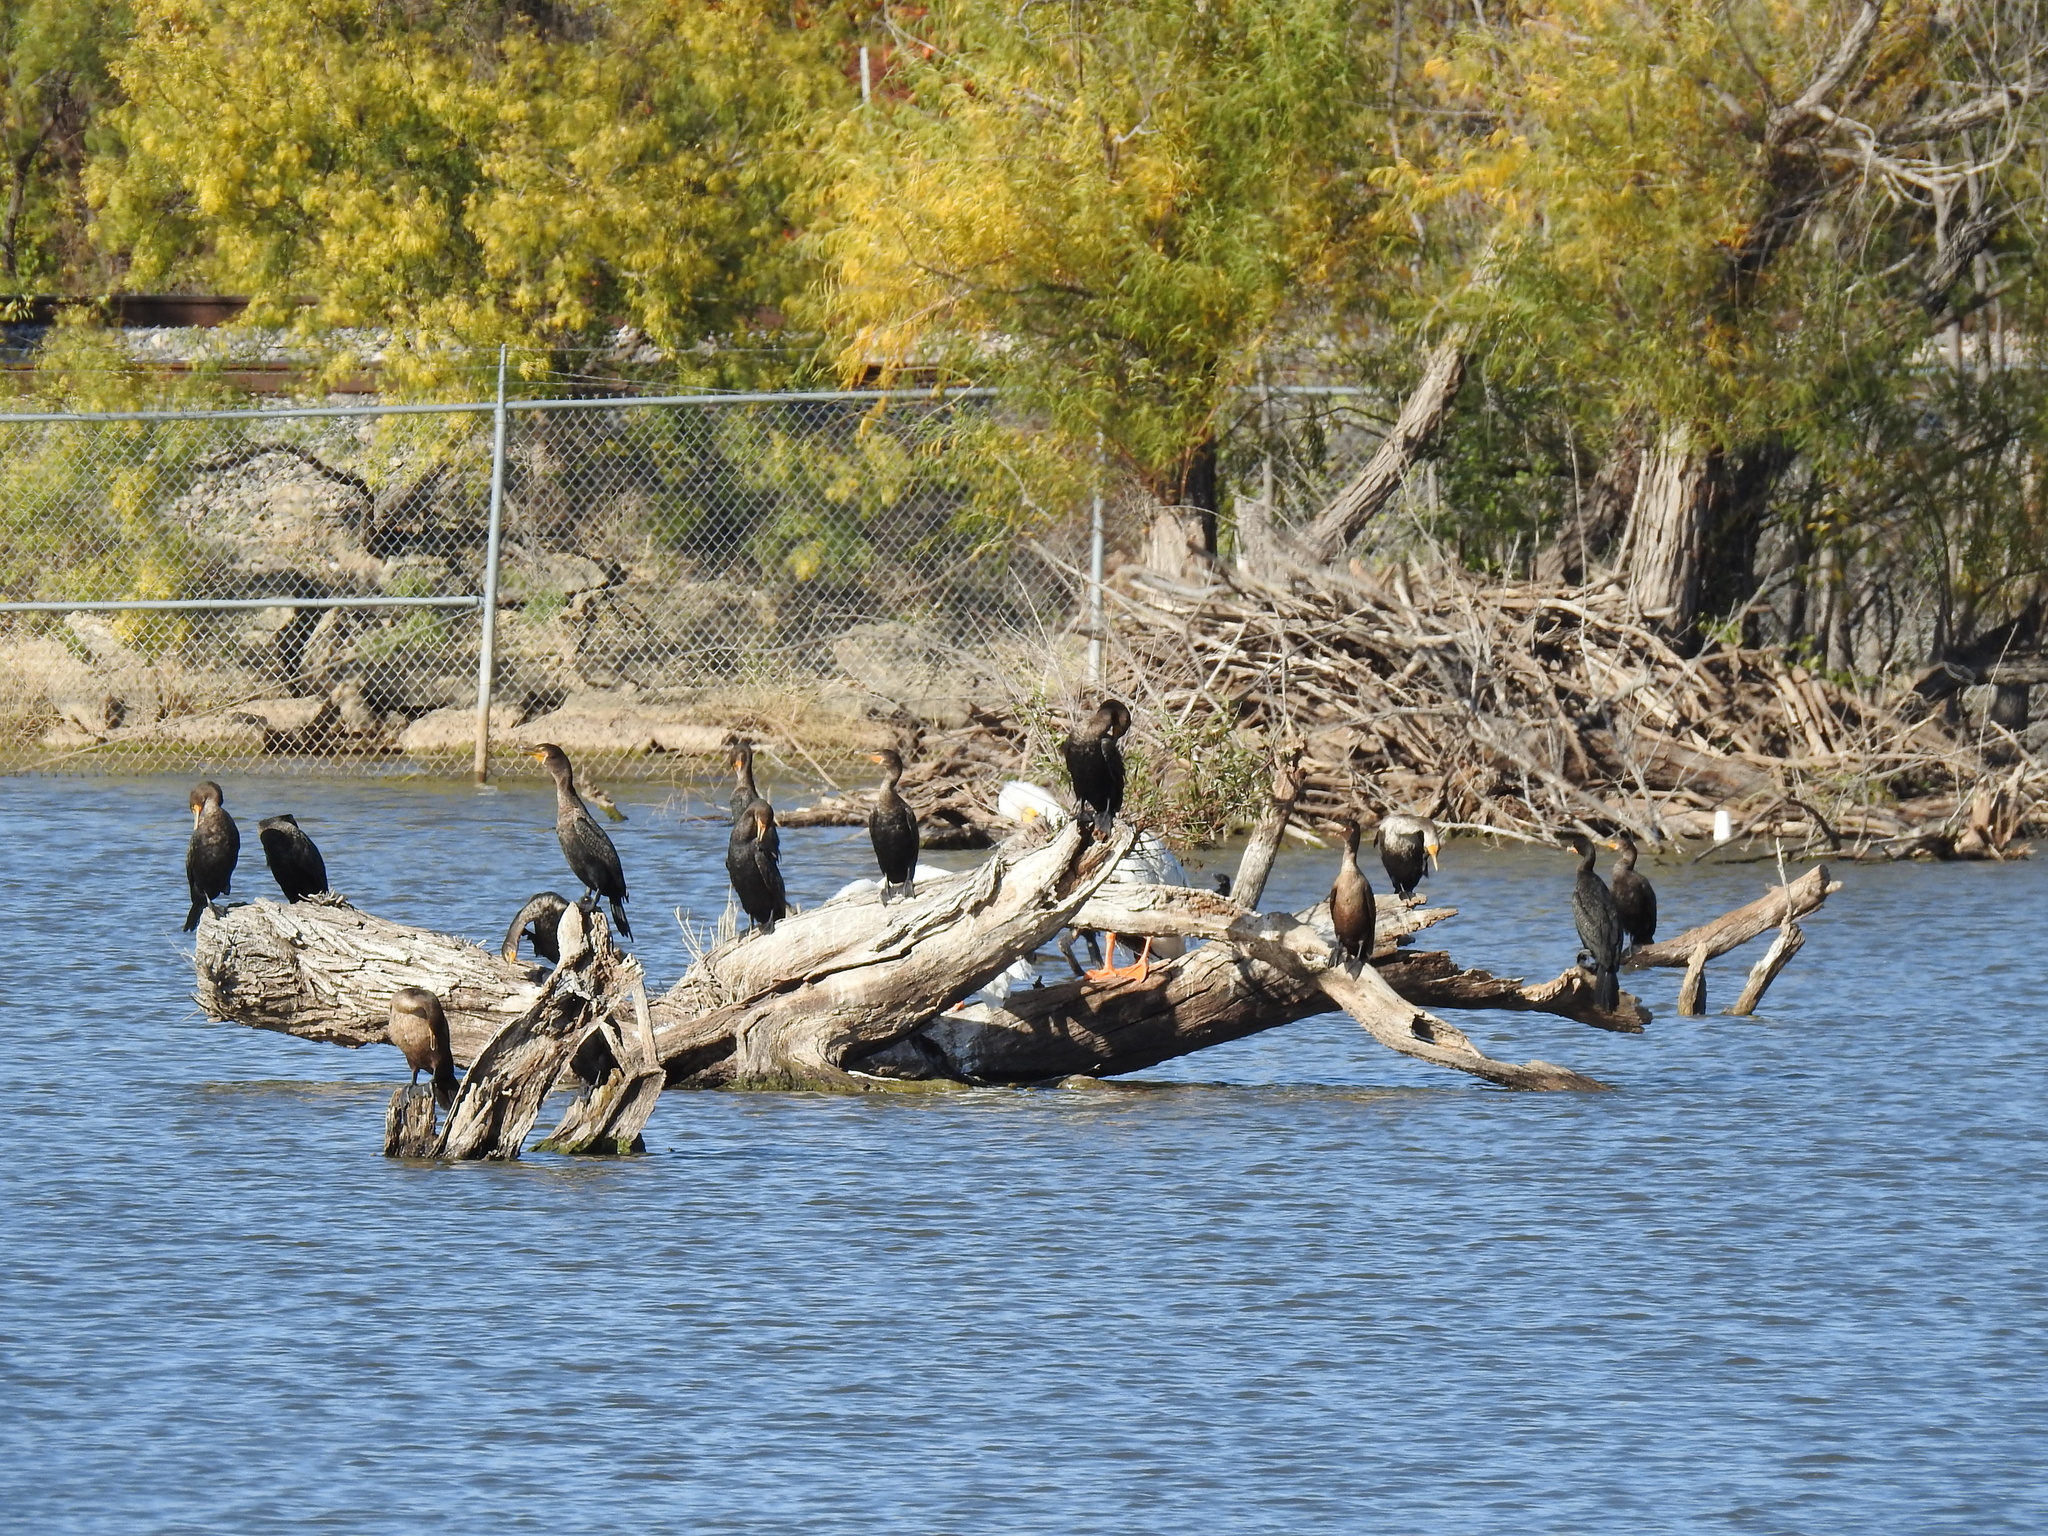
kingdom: Animalia
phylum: Chordata
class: Aves
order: Suliformes
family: Phalacrocoracidae
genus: Phalacrocorax
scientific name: Phalacrocorax auritus
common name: Double-crested cormorant
